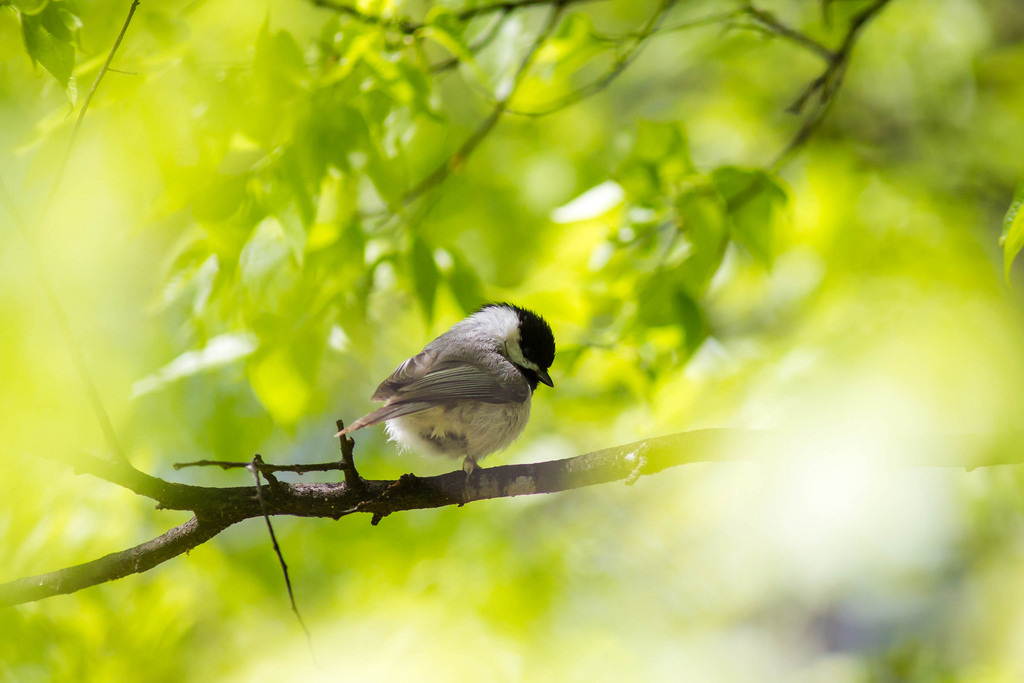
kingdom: Animalia
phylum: Chordata
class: Aves
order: Passeriformes
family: Paridae
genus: Poecile
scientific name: Poecile carolinensis
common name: Carolina chickadee
